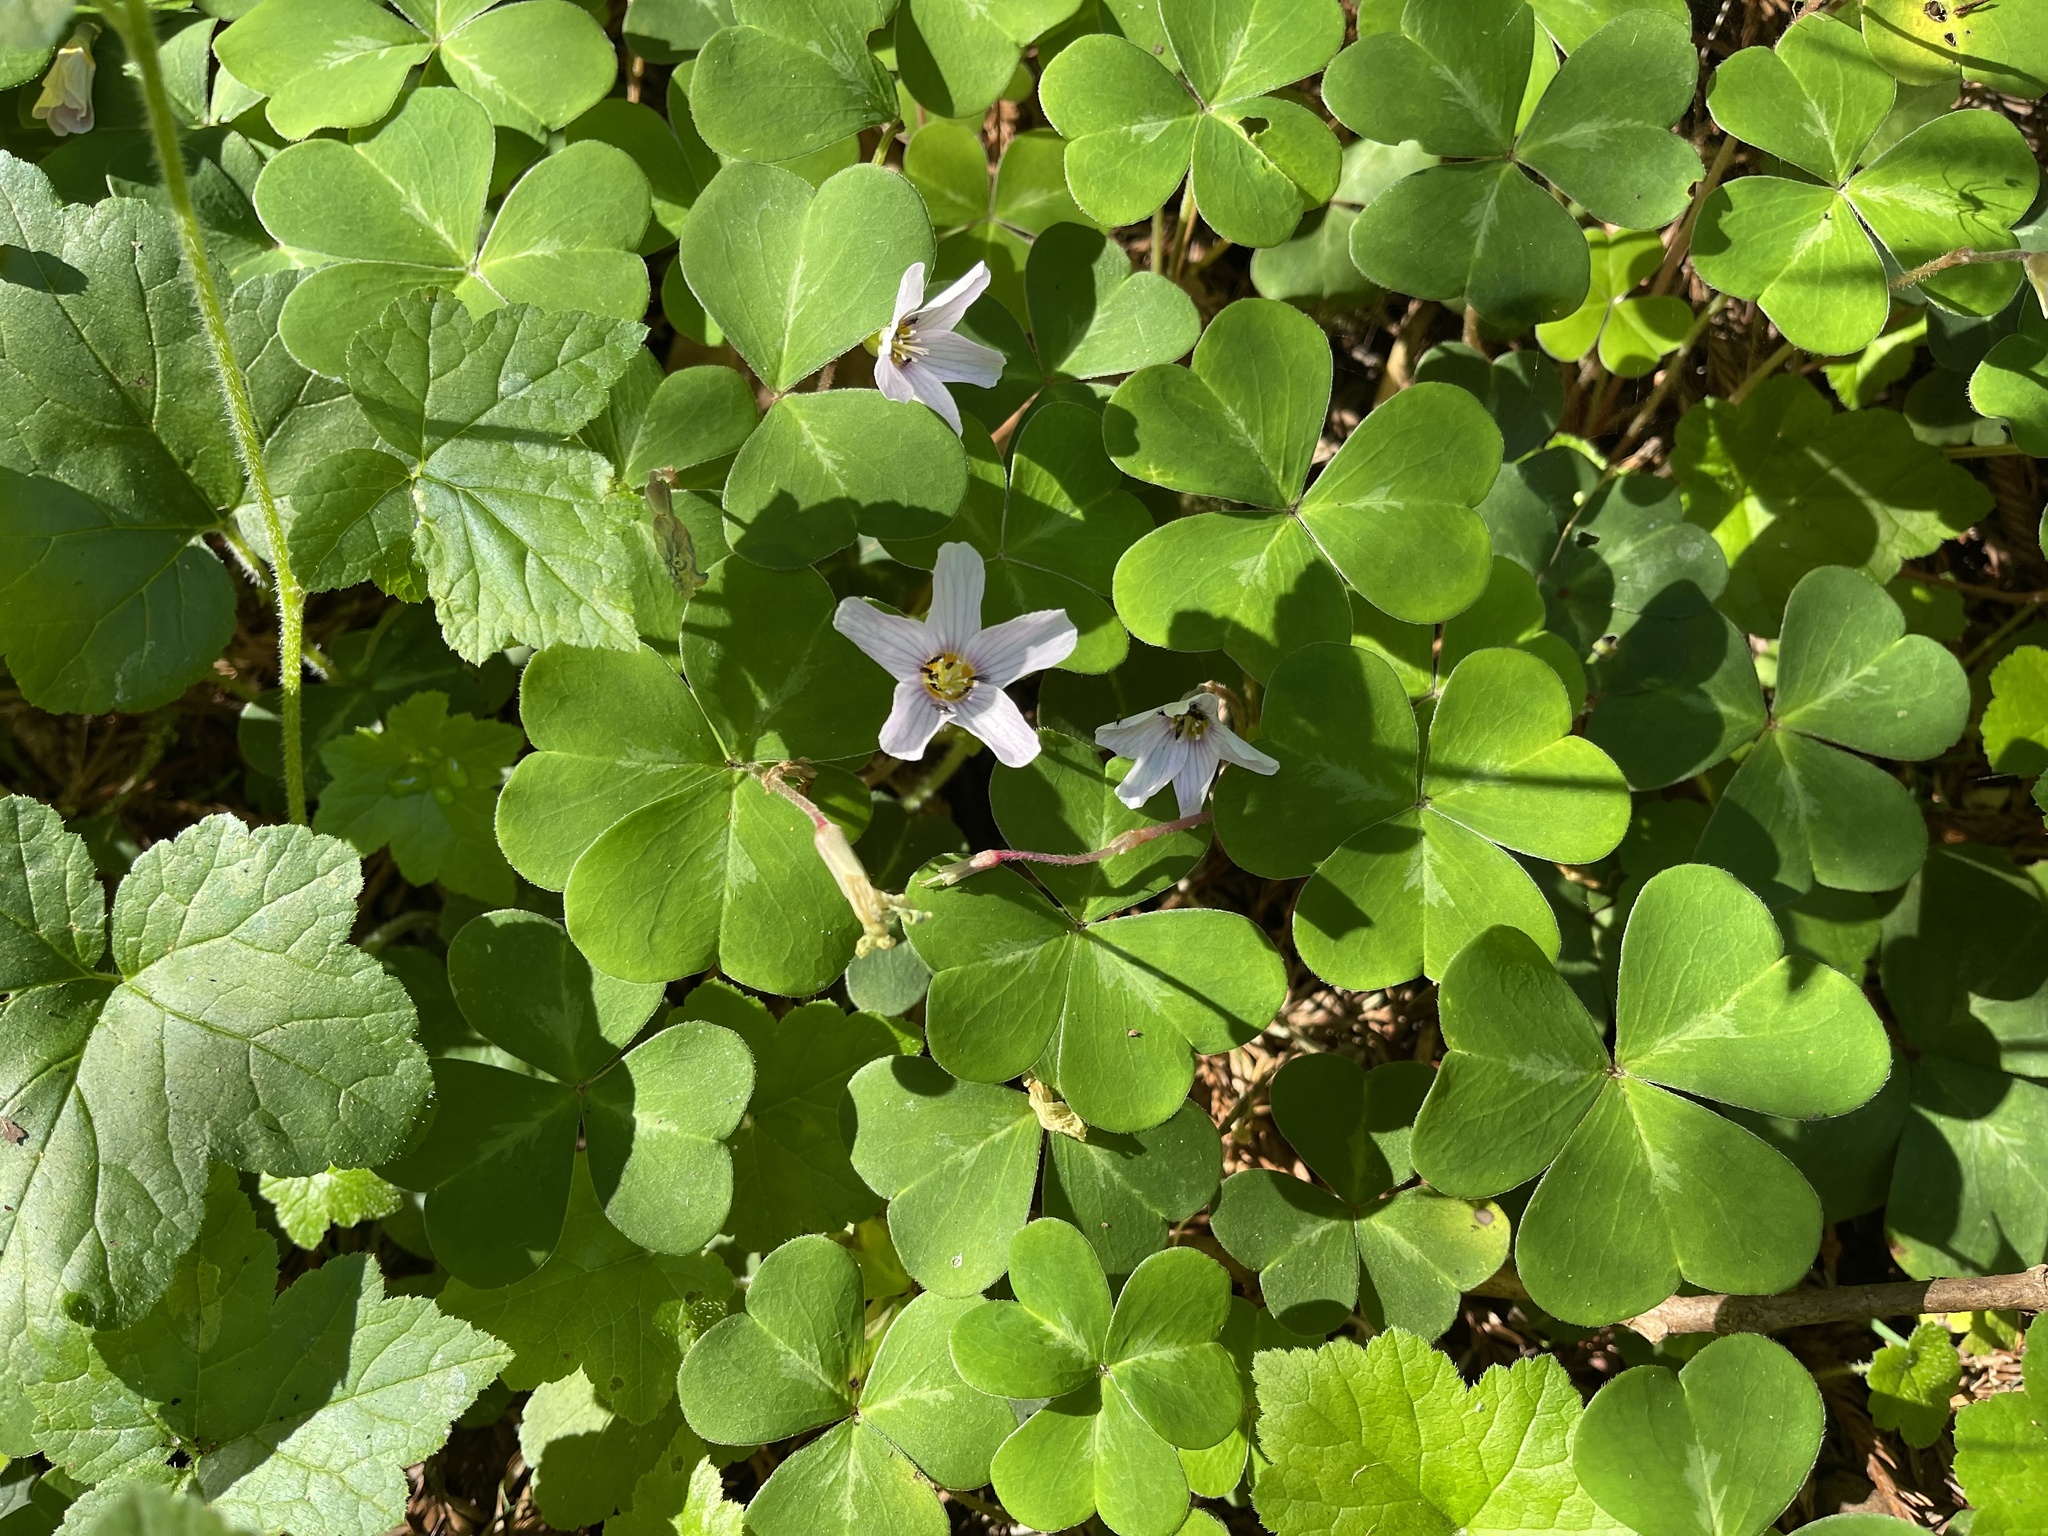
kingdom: Plantae
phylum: Tracheophyta
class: Magnoliopsida
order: Oxalidales
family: Oxalidaceae
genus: Oxalis
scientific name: Oxalis oregana
